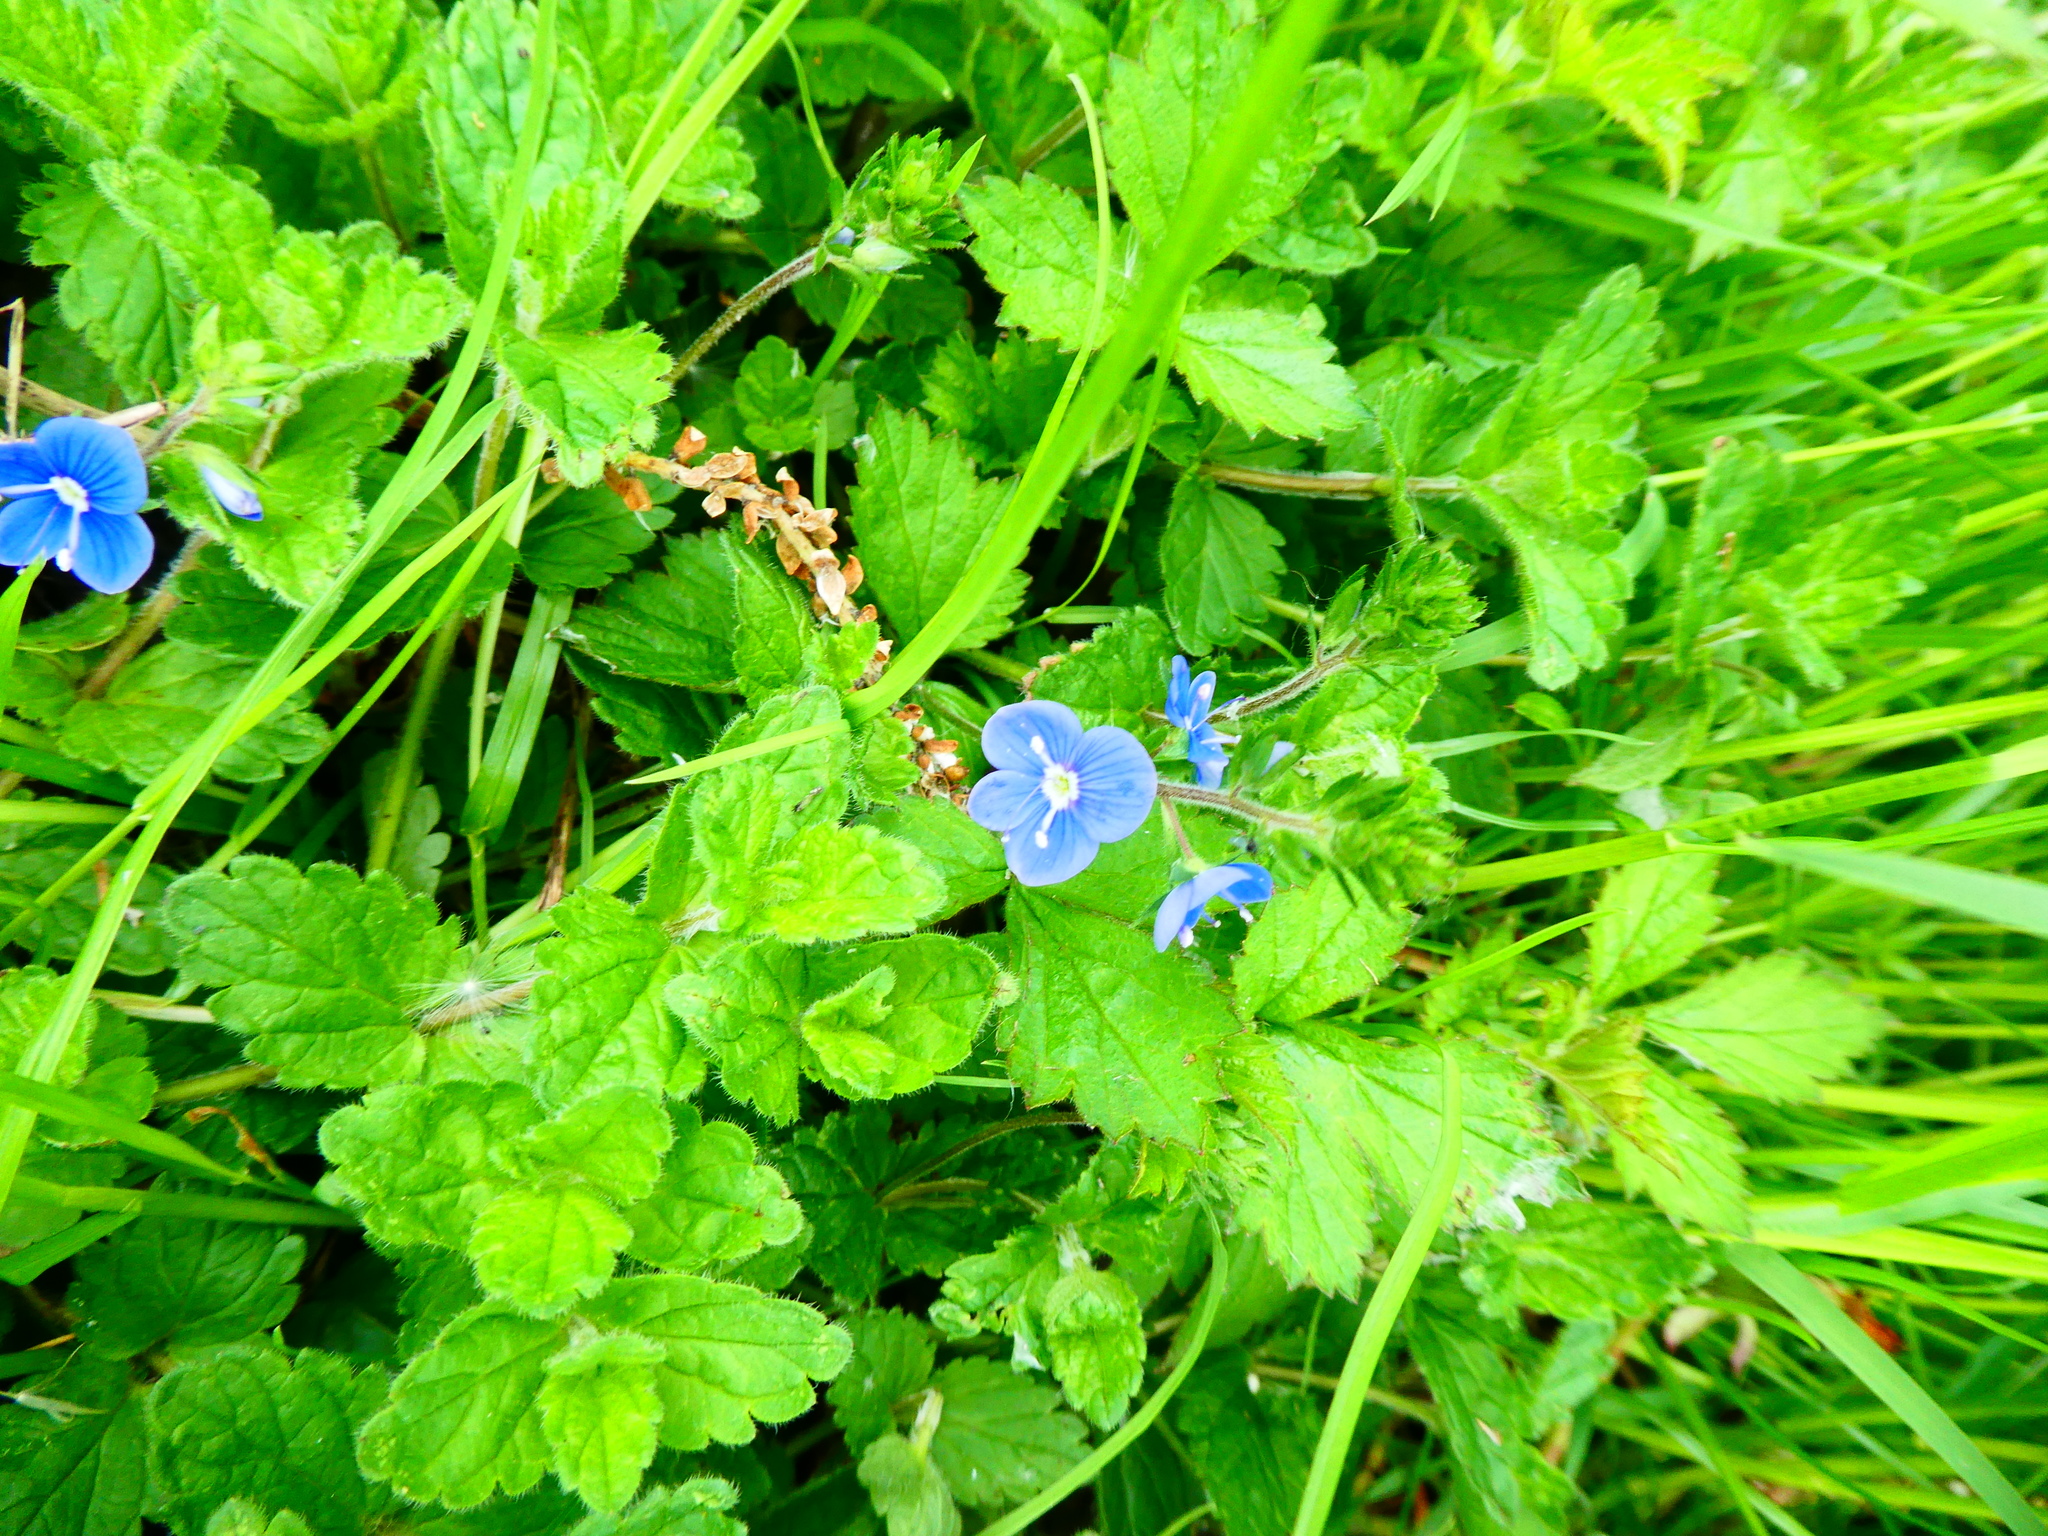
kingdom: Plantae
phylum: Tracheophyta
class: Magnoliopsida
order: Lamiales
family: Plantaginaceae
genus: Veronica
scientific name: Veronica chamaedrys
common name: Germander speedwell
